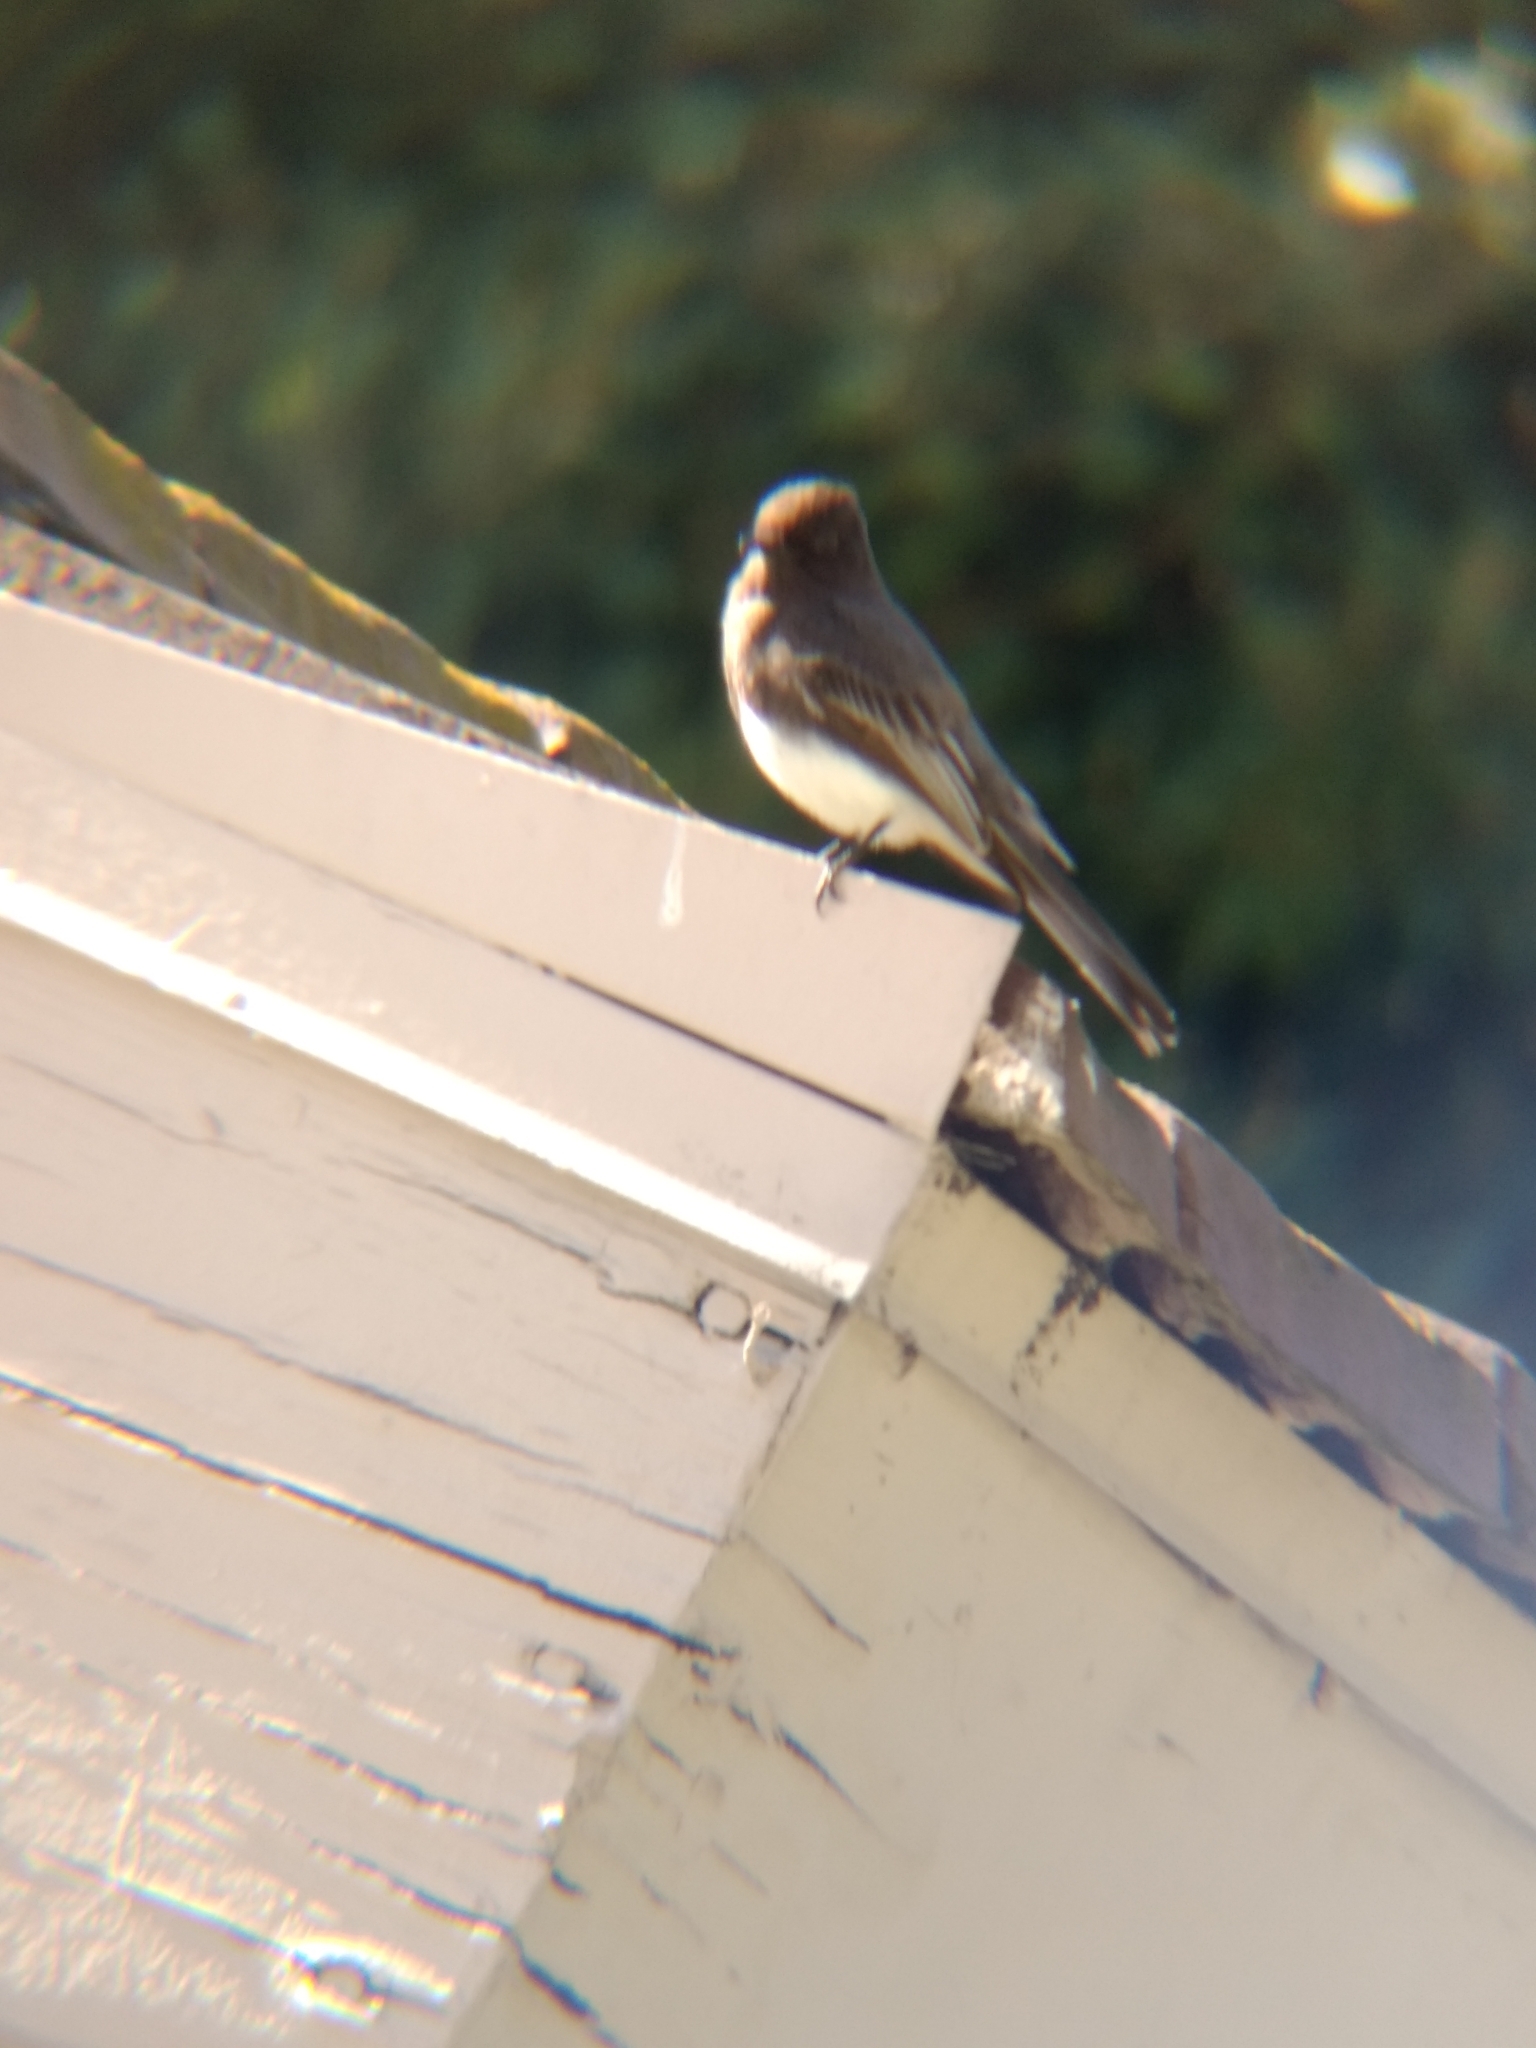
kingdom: Animalia
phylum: Chordata
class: Aves
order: Passeriformes
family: Tyrannidae
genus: Sayornis
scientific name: Sayornis nigricans
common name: Black phoebe
